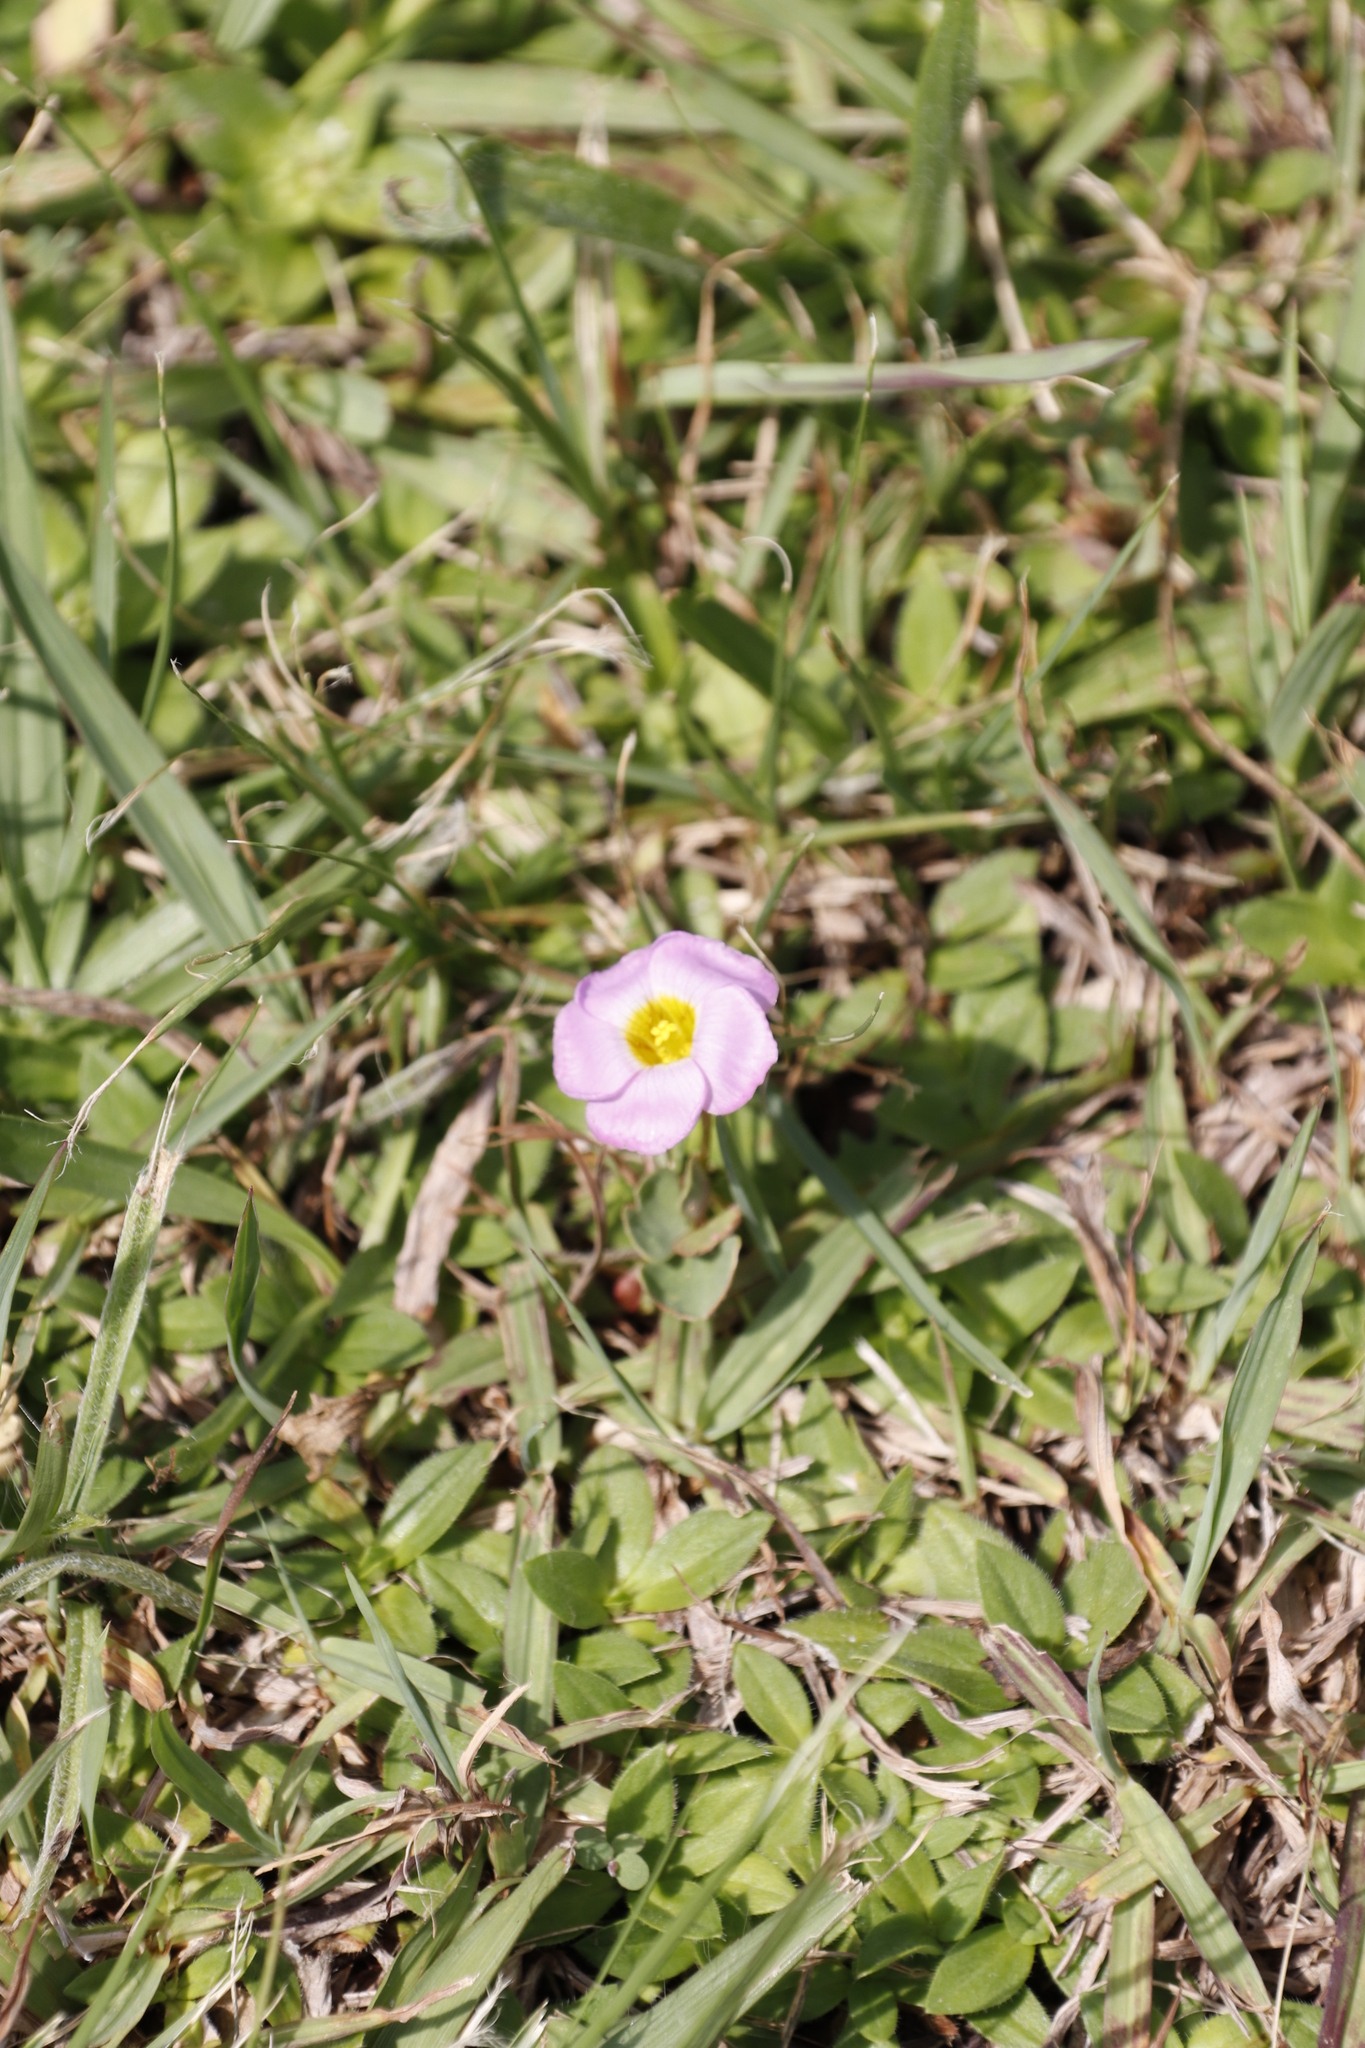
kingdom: Plantae
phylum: Tracheophyta
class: Magnoliopsida
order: Oxalidales
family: Oxalidaceae
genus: Oxalis
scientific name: Oxalis obliquifolia
